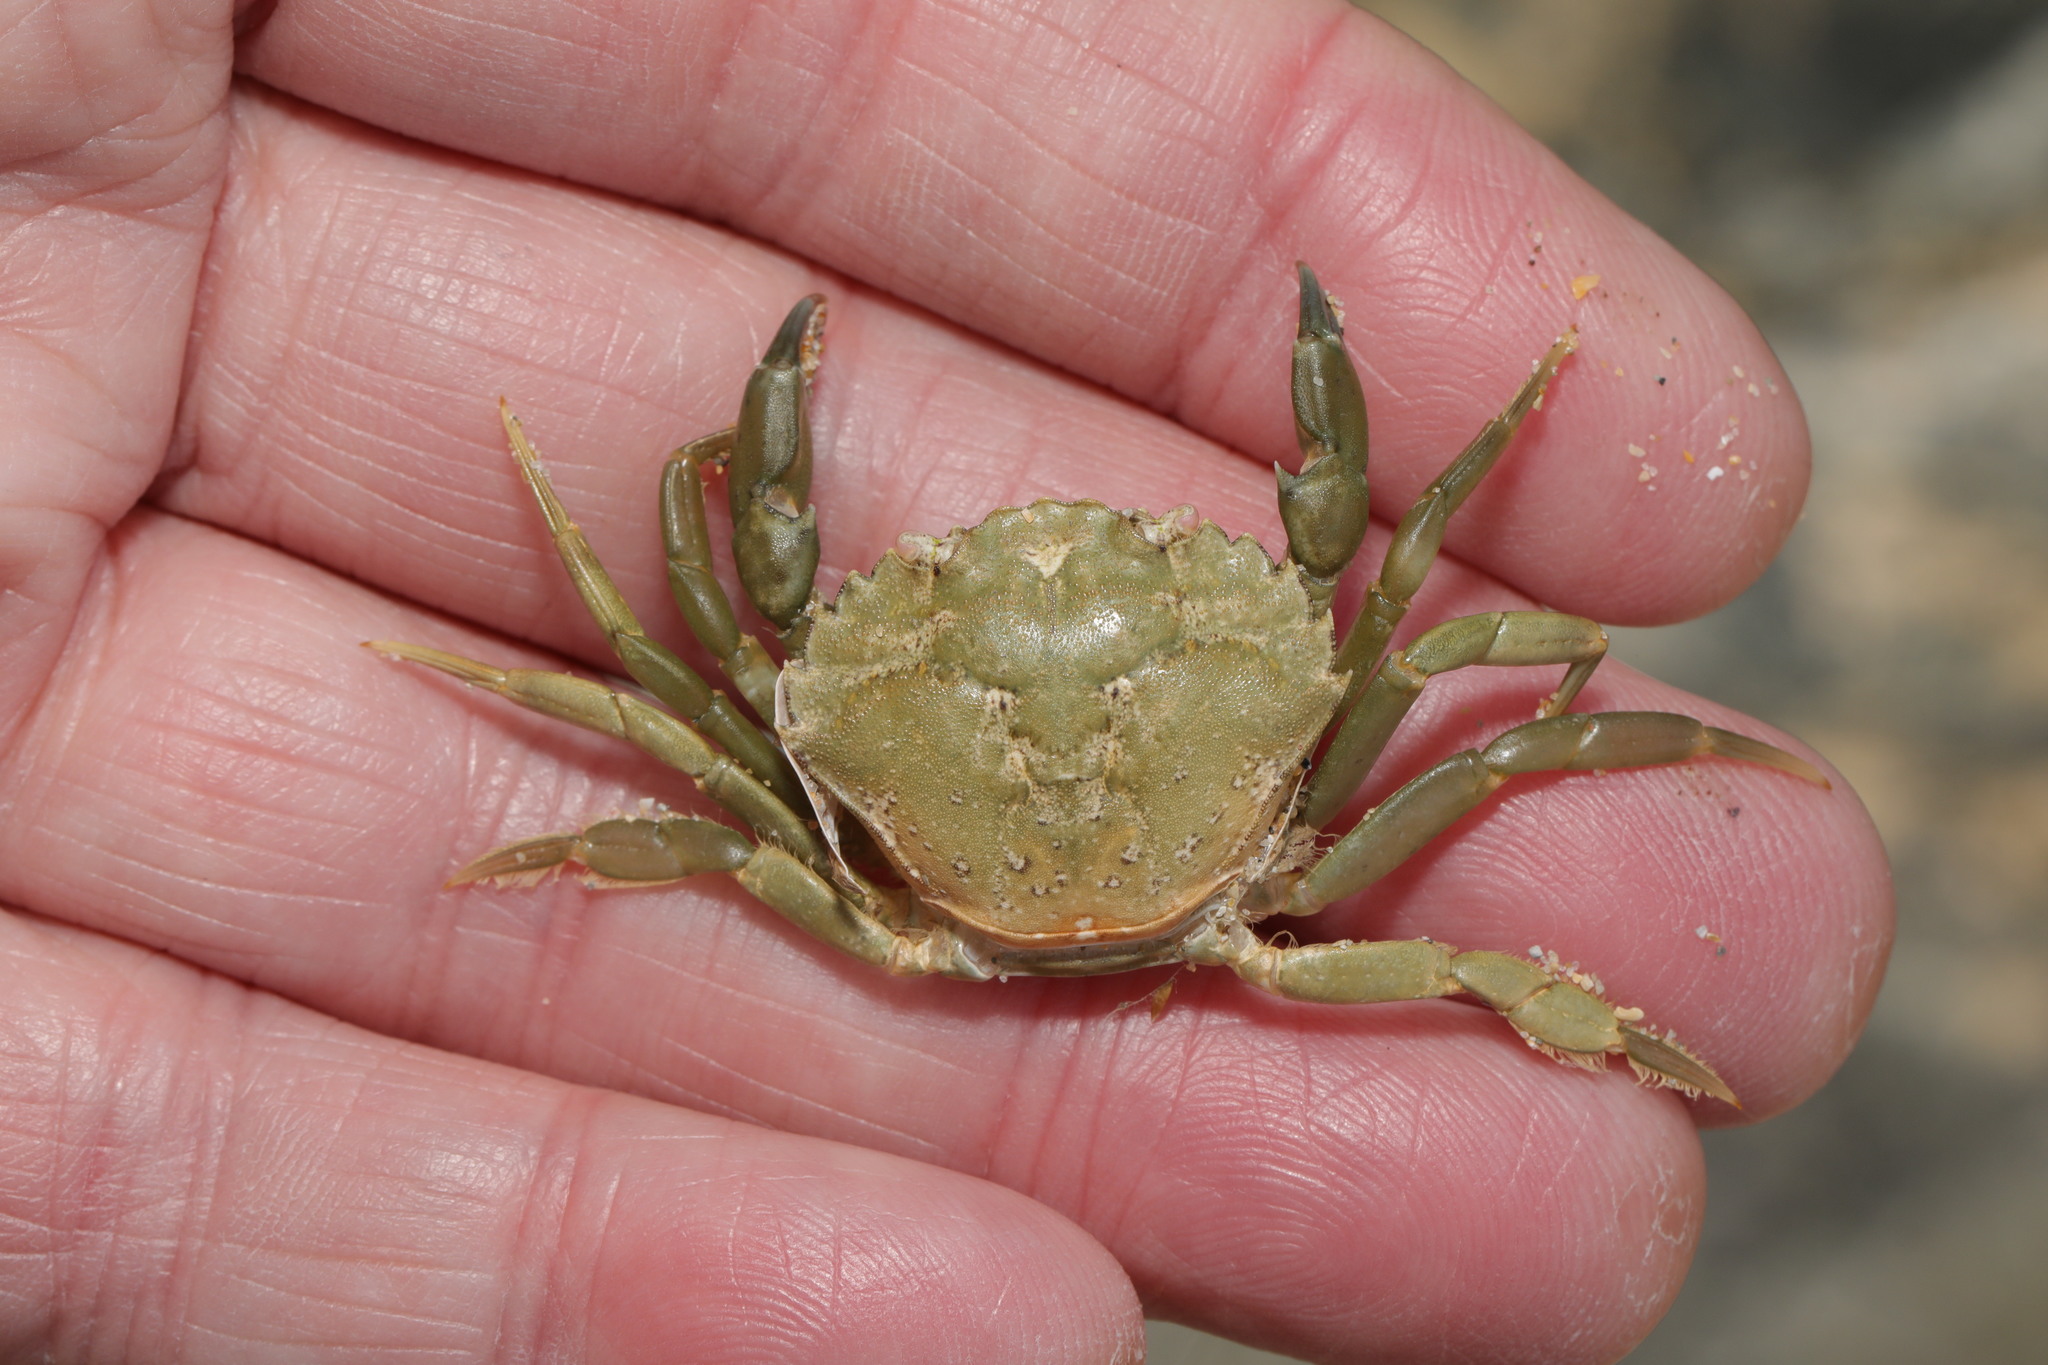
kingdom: Animalia
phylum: Arthropoda
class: Malacostraca
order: Decapoda
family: Carcinidae
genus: Carcinus
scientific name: Carcinus maenas
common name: European green crab
